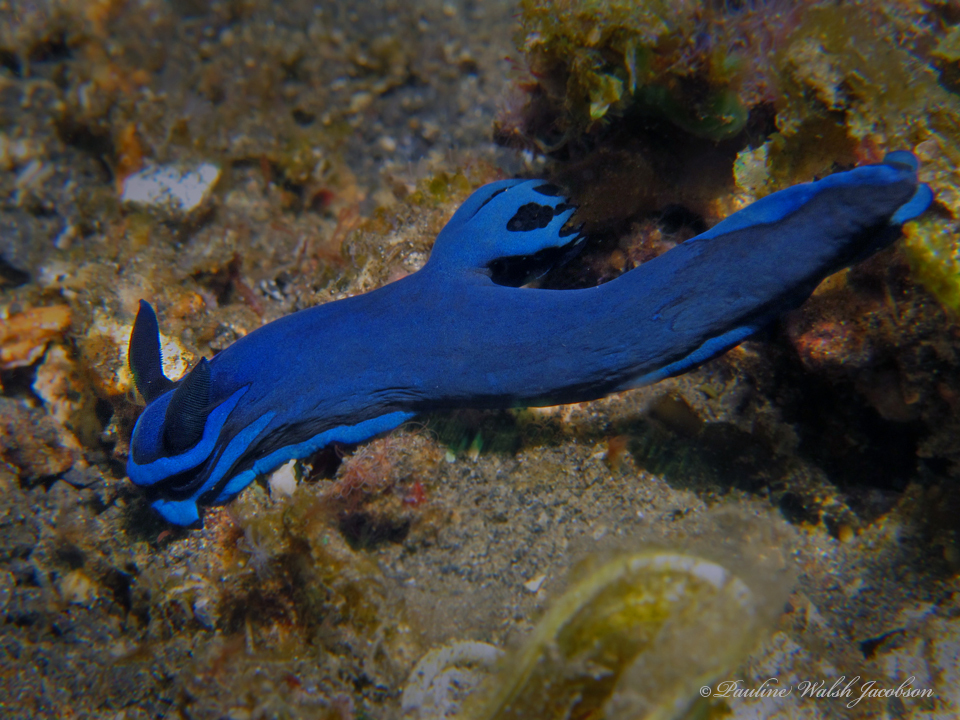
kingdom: Animalia
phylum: Mollusca
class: Gastropoda
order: Nudibranchia
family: Polyceridae
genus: Tambja
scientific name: Tambja morosa
